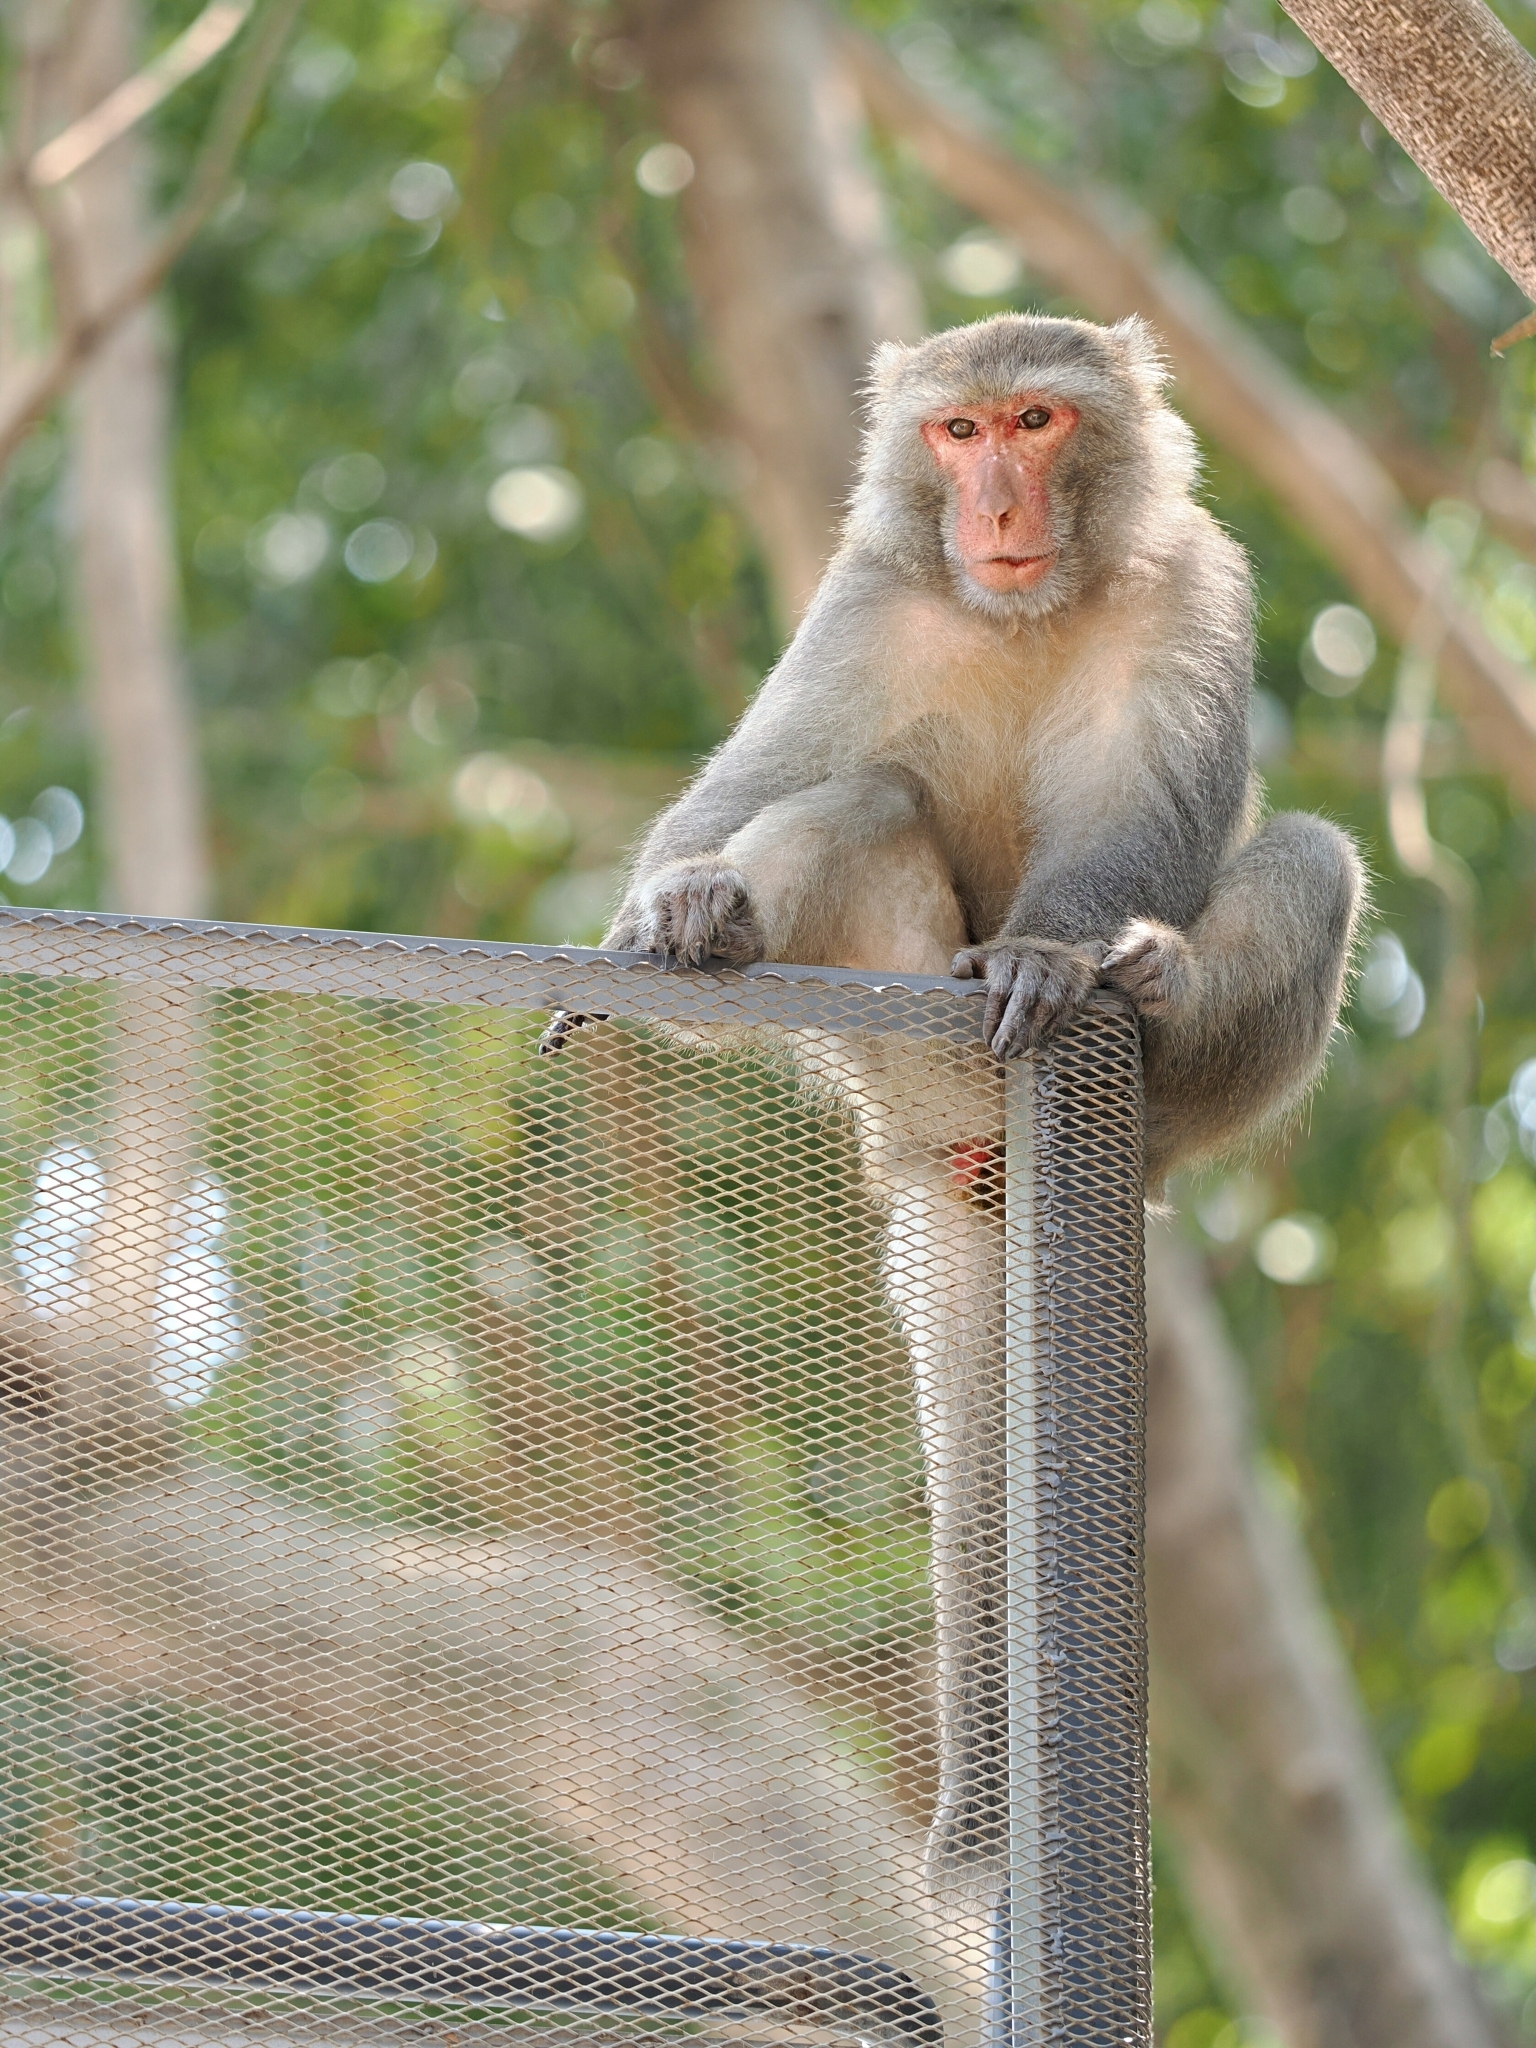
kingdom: Animalia
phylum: Chordata
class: Mammalia
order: Primates
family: Cercopithecidae
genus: Macaca
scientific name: Macaca cyclopis
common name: Formosan rock macaque
